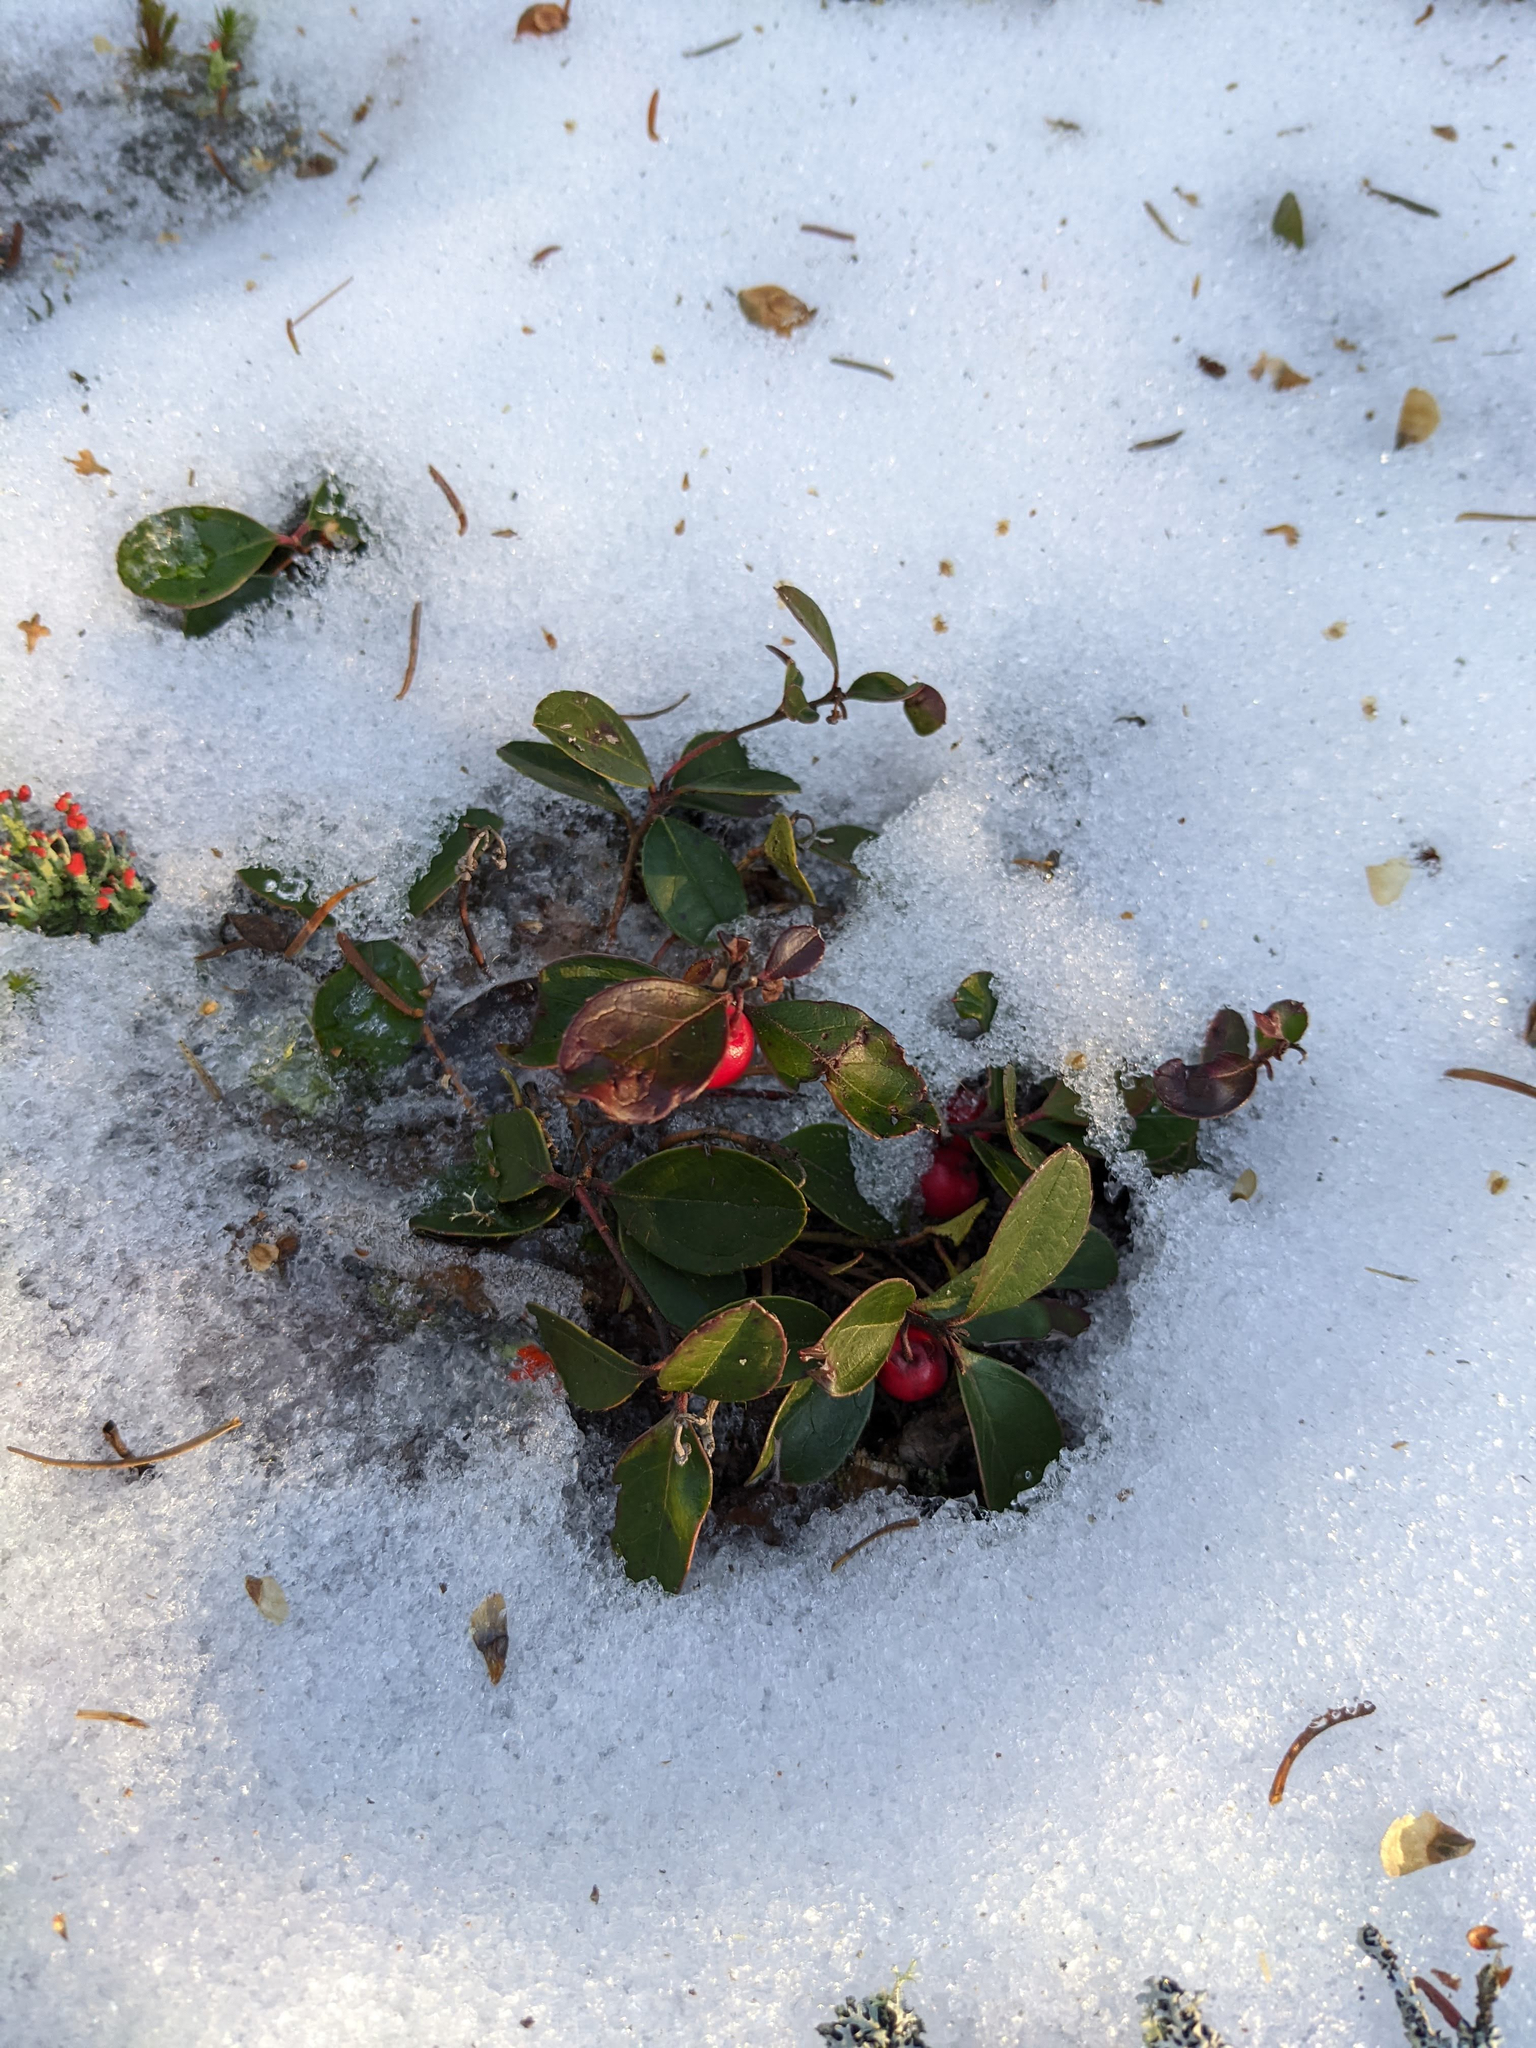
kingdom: Plantae
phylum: Tracheophyta
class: Magnoliopsida
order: Ericales
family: Ericaceae
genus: Gaultheria
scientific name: Gaultheria procumbens
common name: Checkerberry
